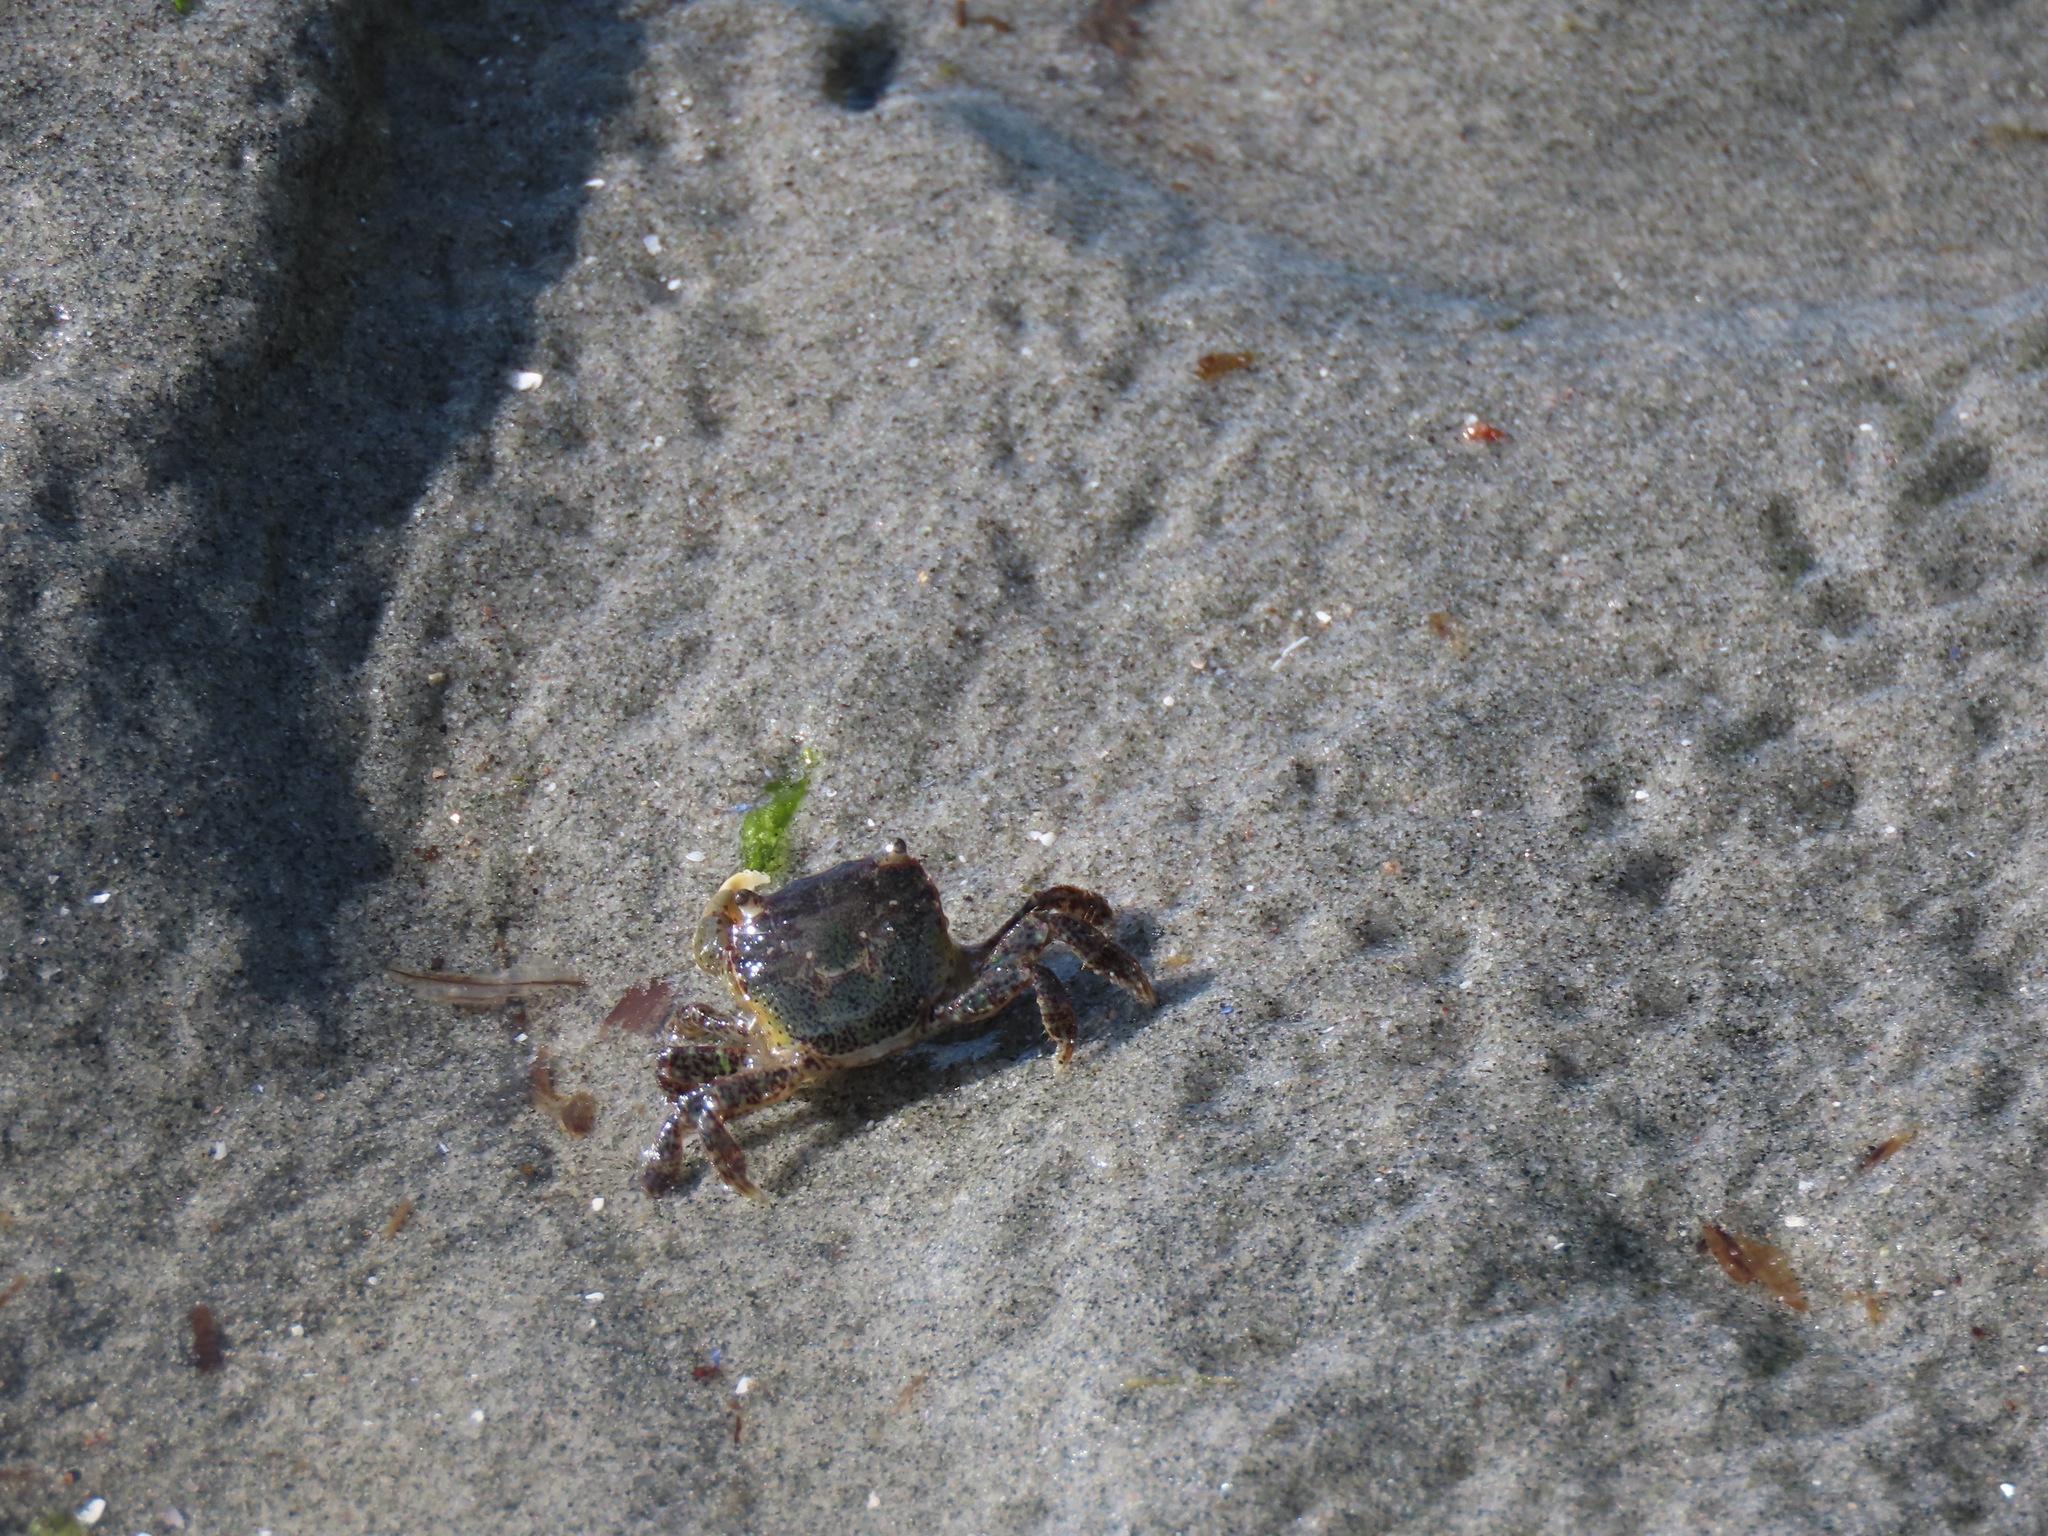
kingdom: Animalia
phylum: Arthropoda
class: Malacostraca
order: Decapoda
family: Varunidae
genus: Hemigrapsus
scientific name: Hemigrapsus oregonensis
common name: Yellow shore crab
